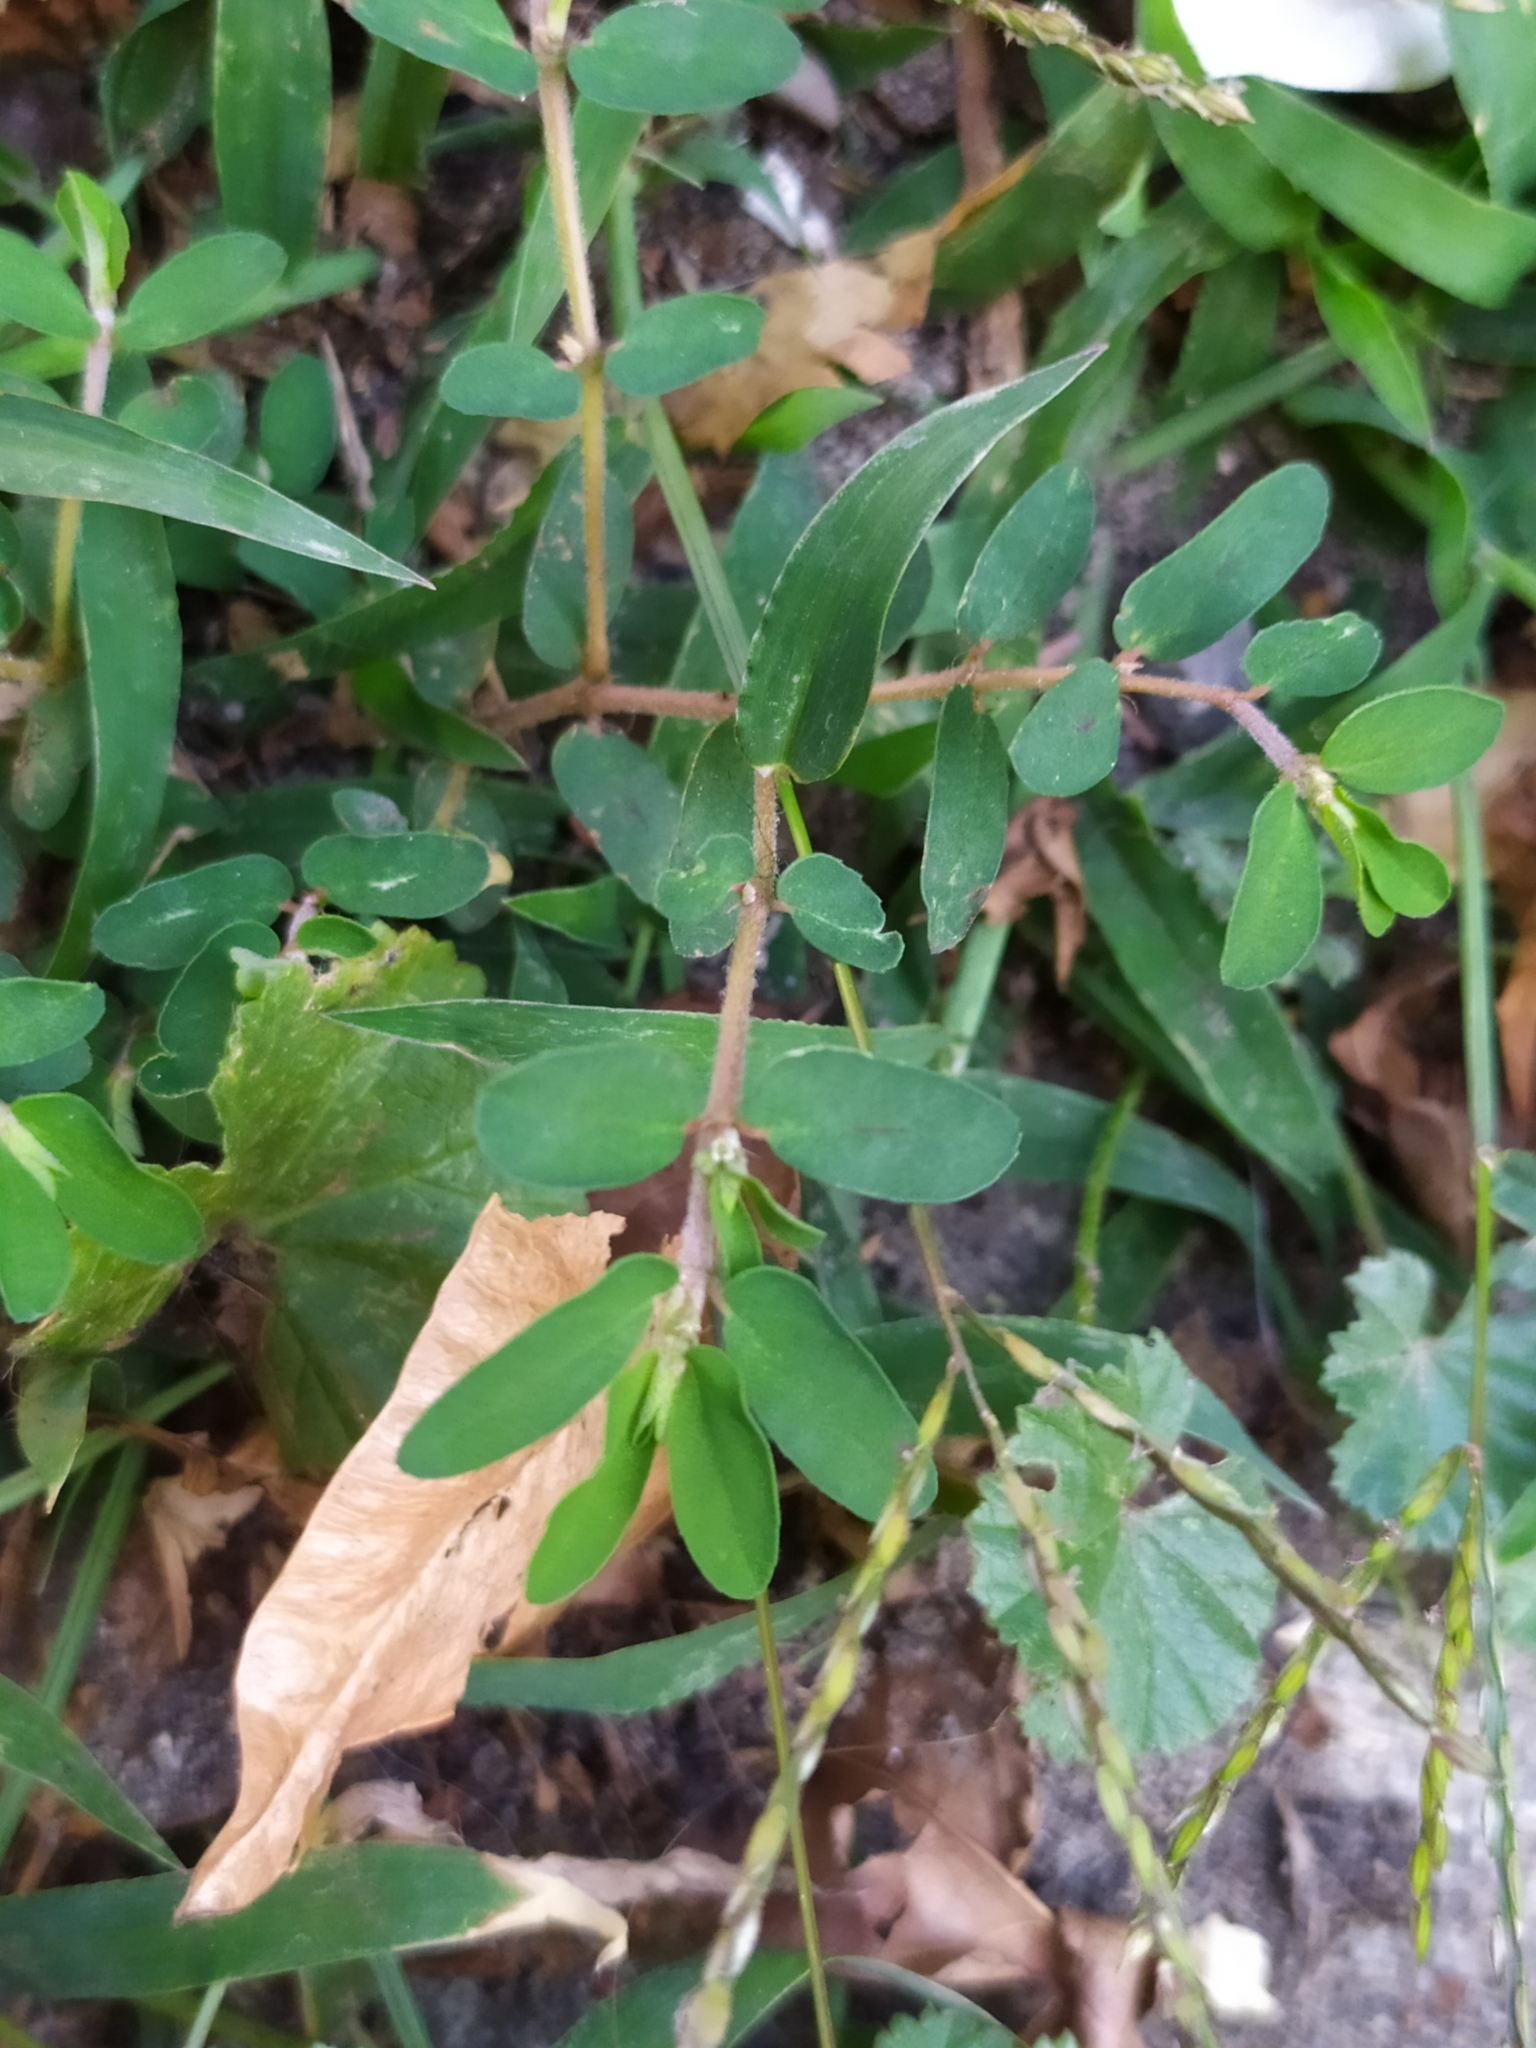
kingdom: Plantae
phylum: Tracheophyta
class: Magnoliopsida
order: Malpighiales
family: Euphorbiaceae
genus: Euphorbia
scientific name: Euphorbia maculata
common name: Spotted spurge
